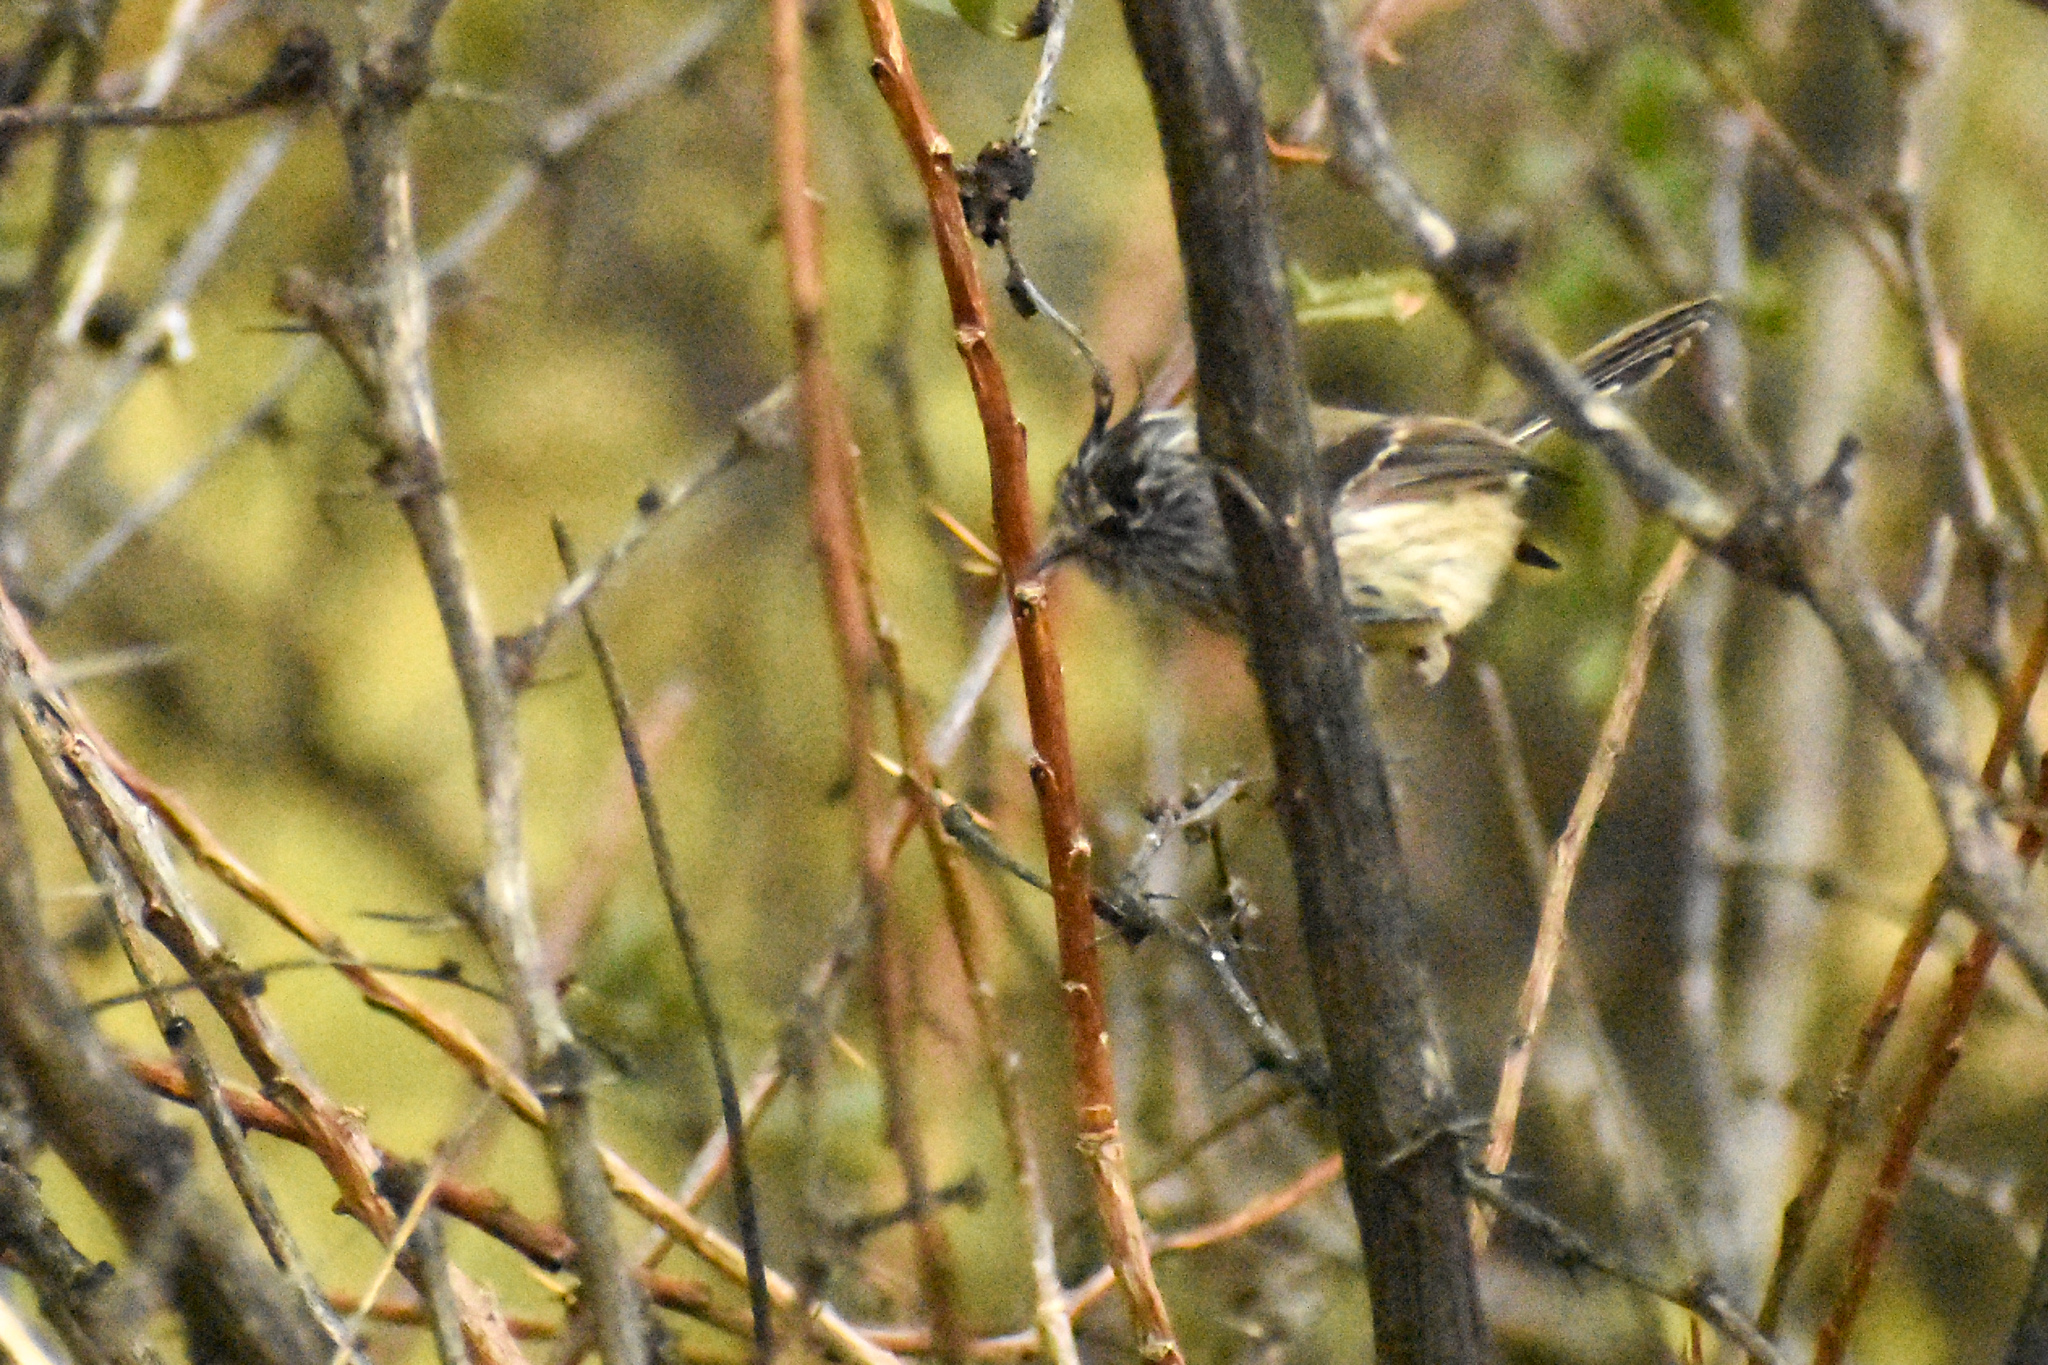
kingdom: Animalia
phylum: Chordata
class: Aves
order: Passeriformes
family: Tyrannidae
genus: Anairetes
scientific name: Anairetes parulus
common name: Tufted tit-tyrant
